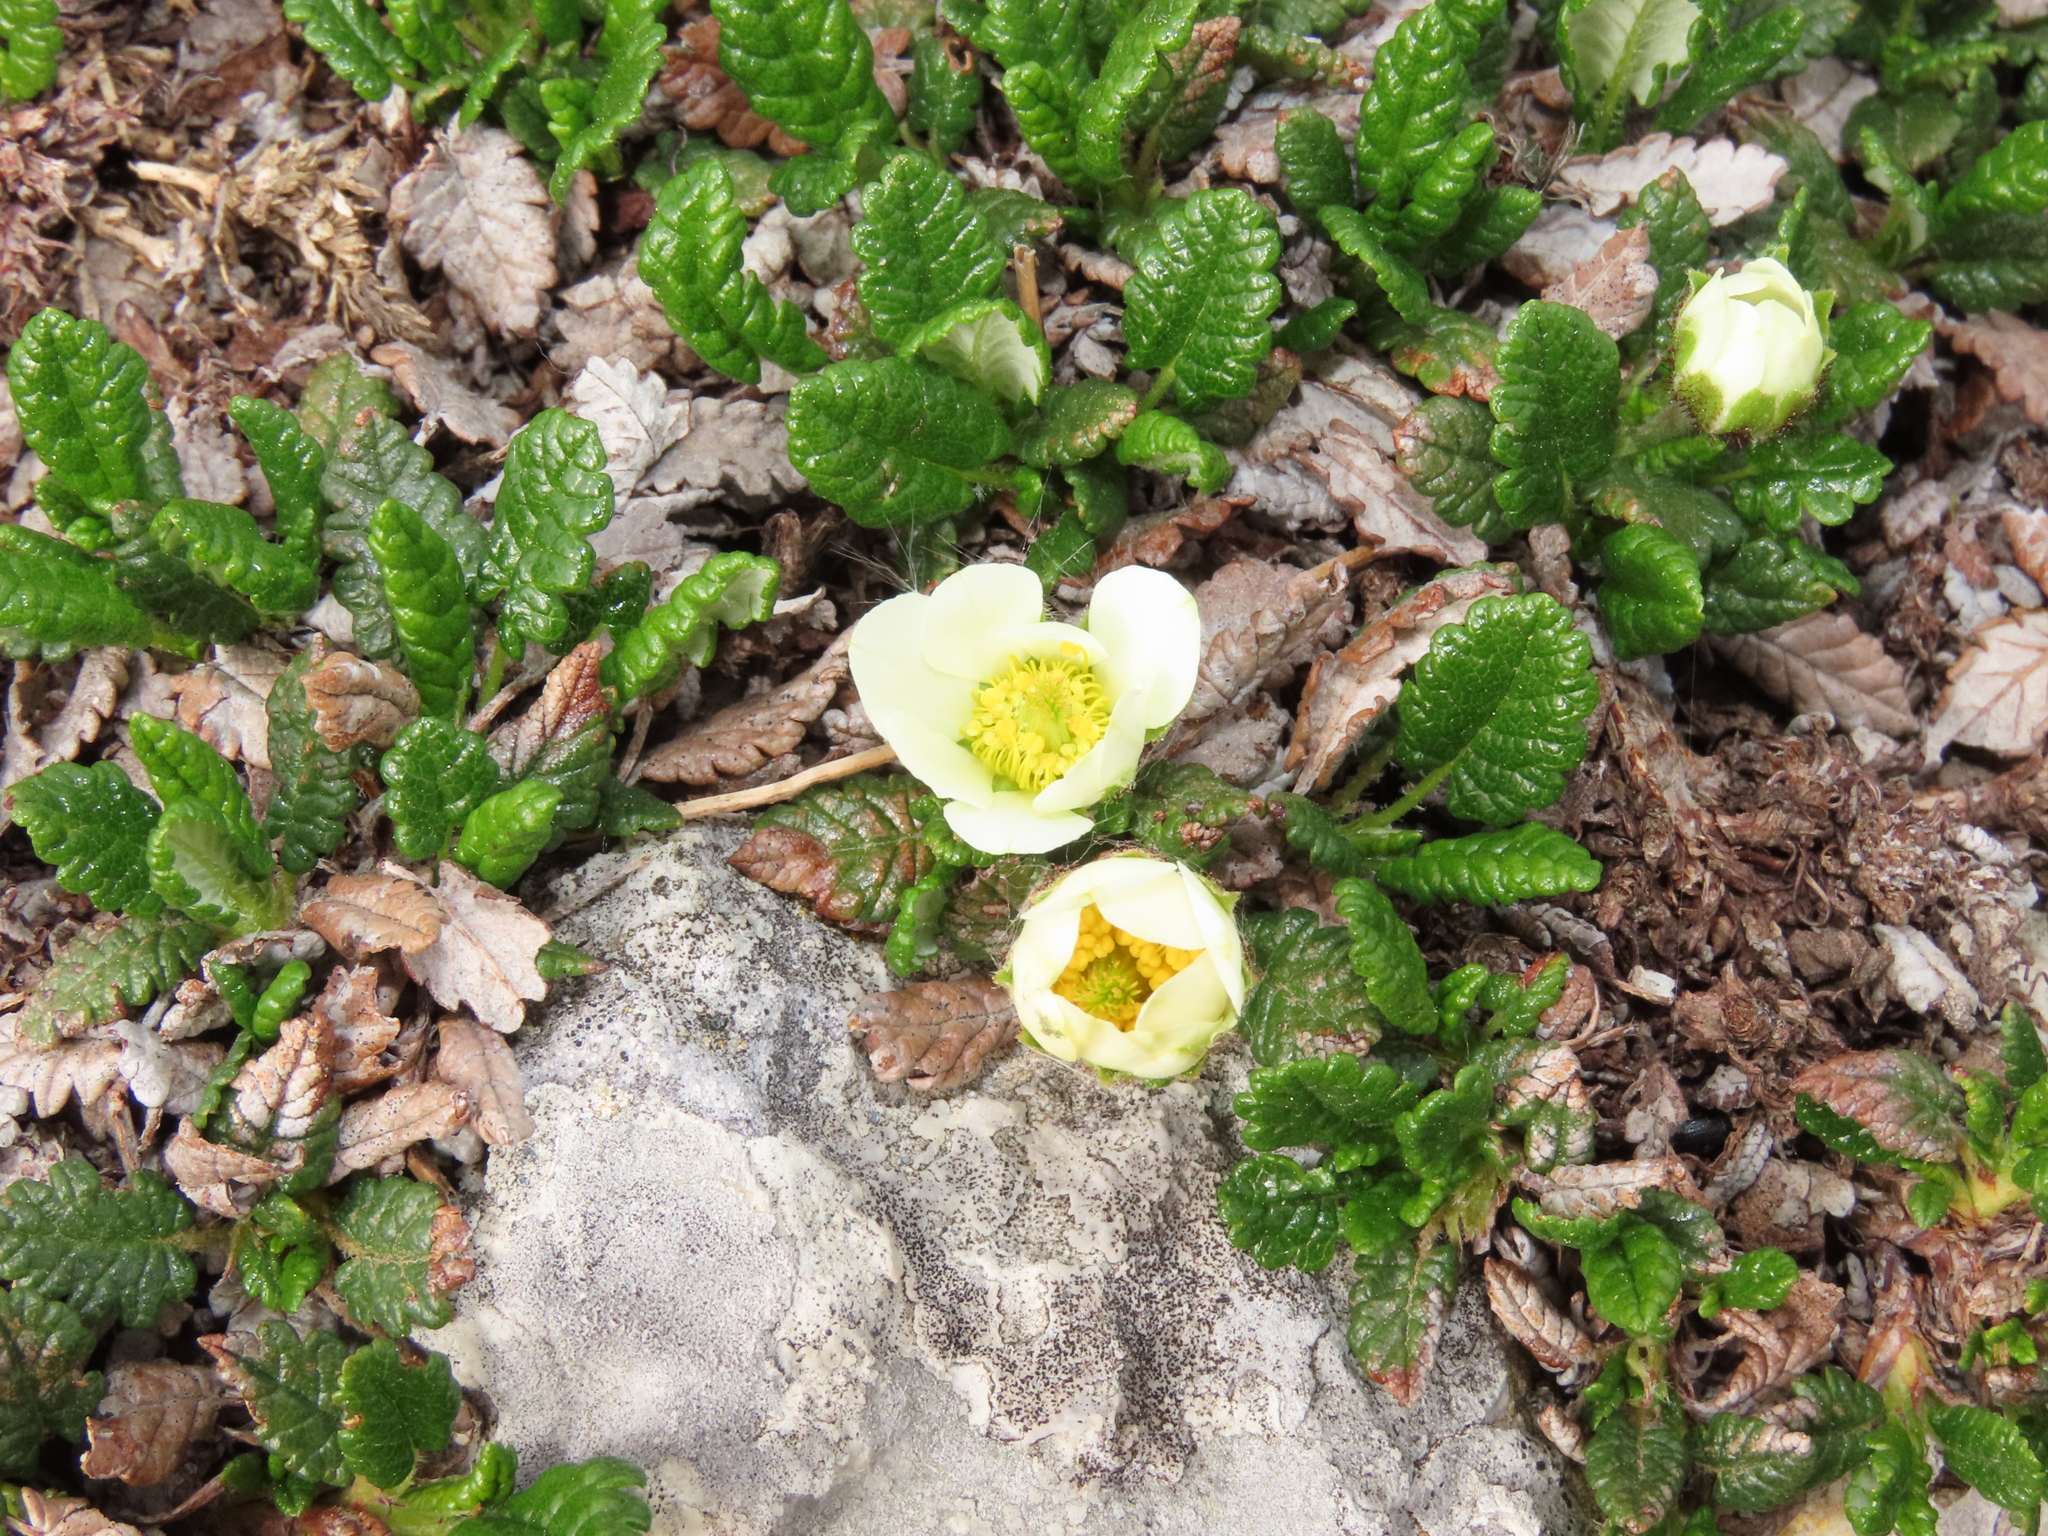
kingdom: Plantae
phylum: Tracheophyta
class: Magnoliopsida
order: Rosales
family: Rosaceae
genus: Dryas
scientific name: Dryas octopetala
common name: Eight-petal mountain-avens
